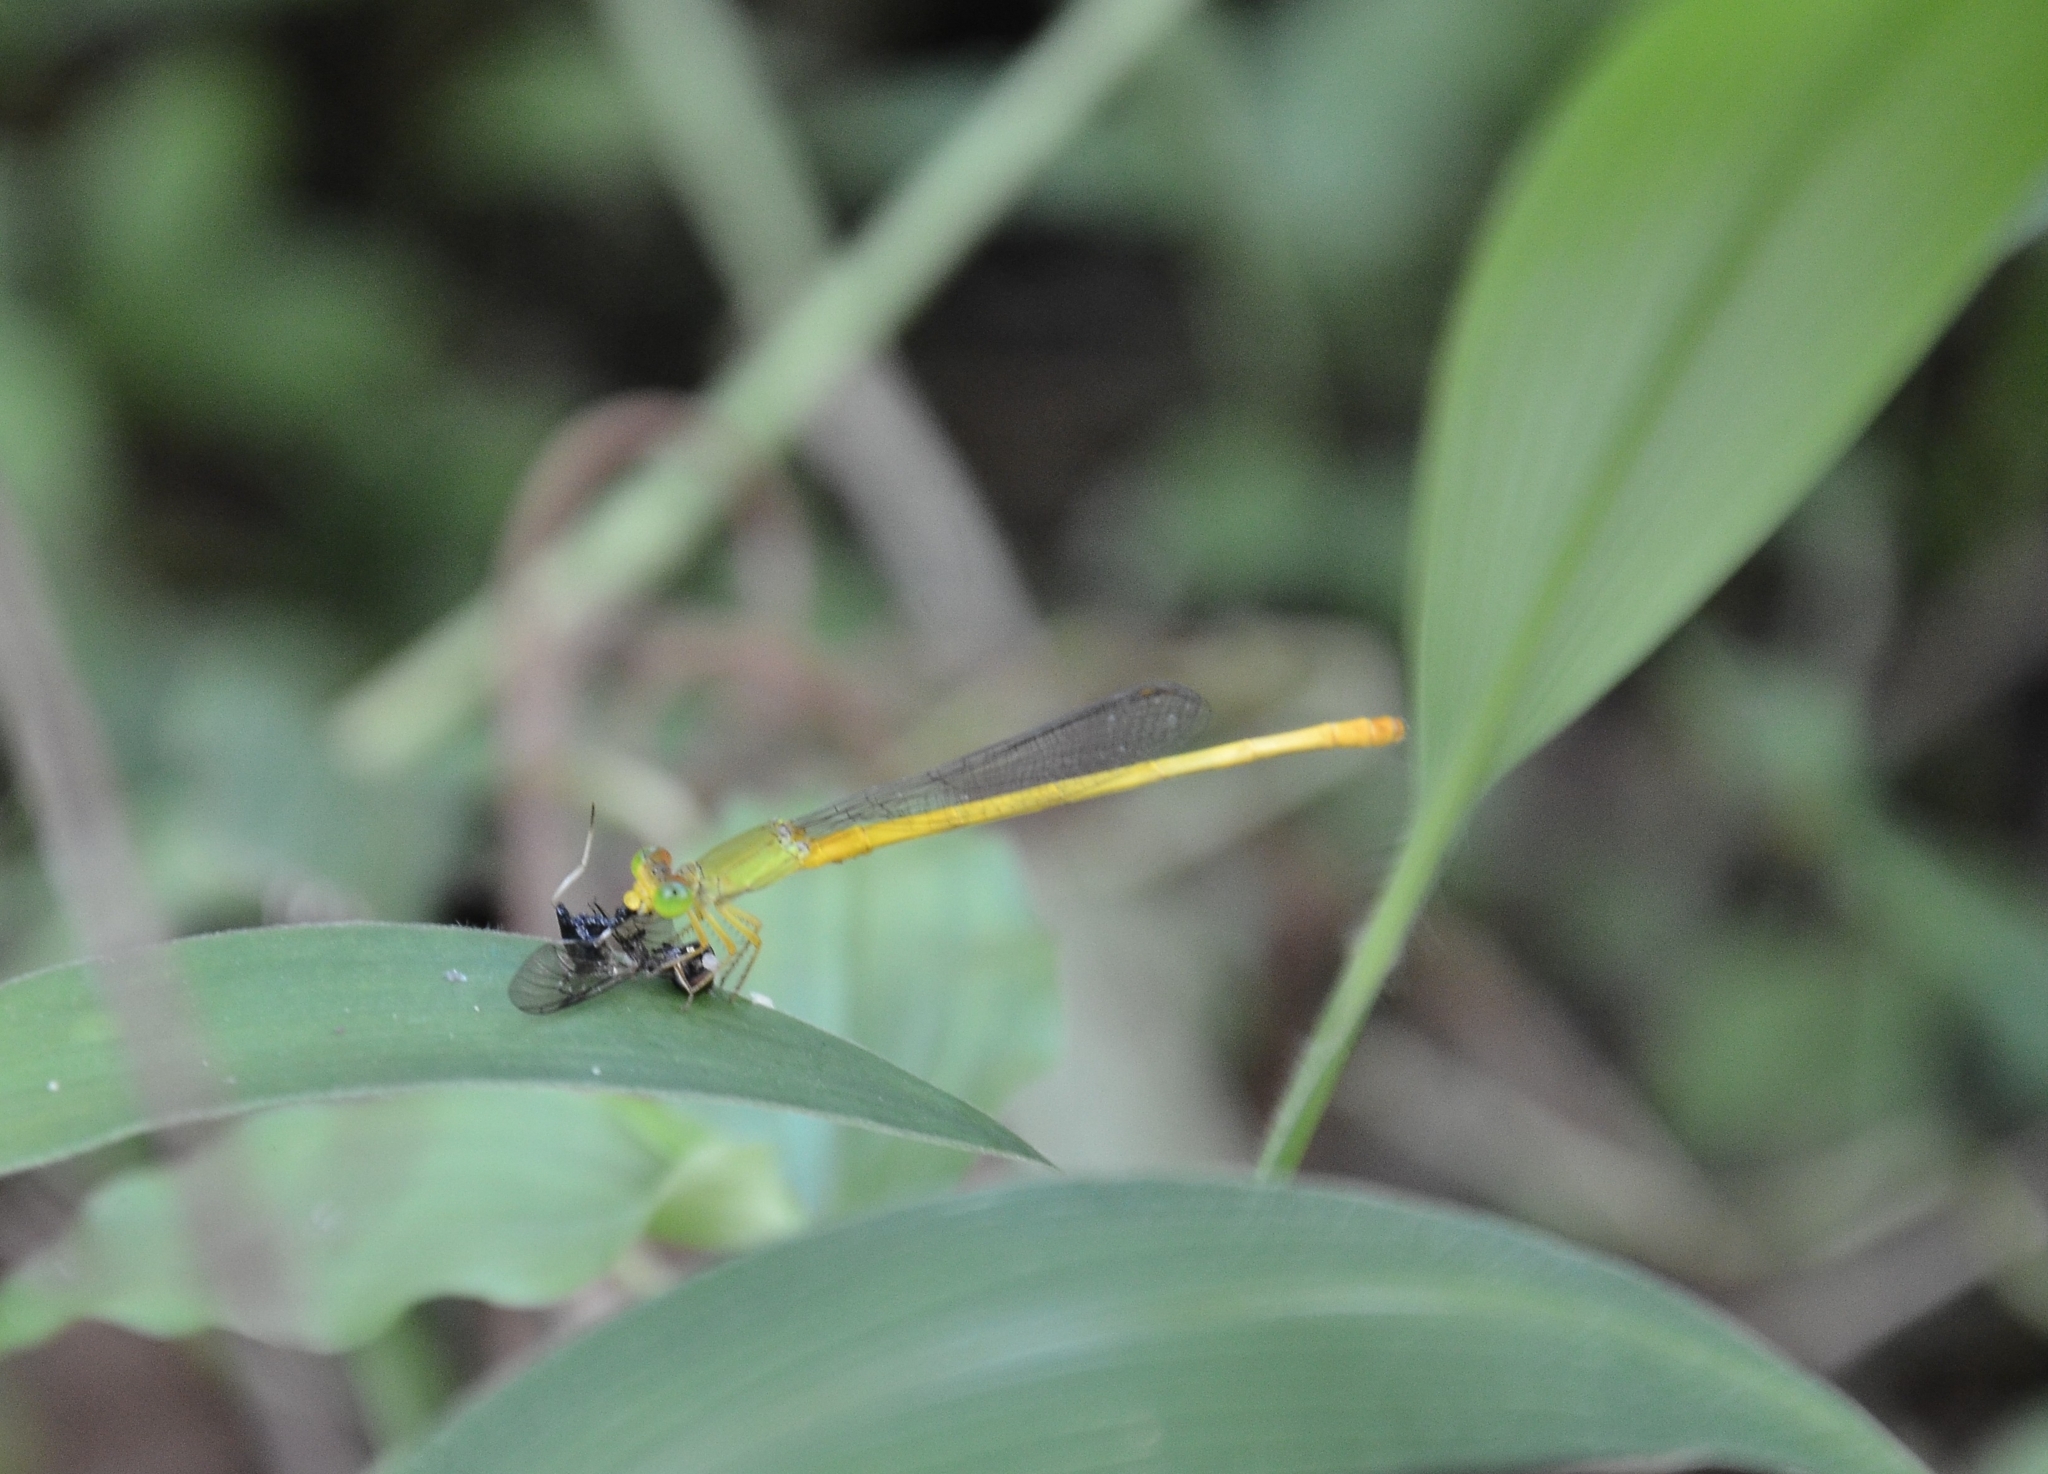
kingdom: Animalia
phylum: Arthropoda
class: Insecta
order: Odonata
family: Coenagrionidae
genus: Ceriagrion
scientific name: Ceriagrion coromandelianum
